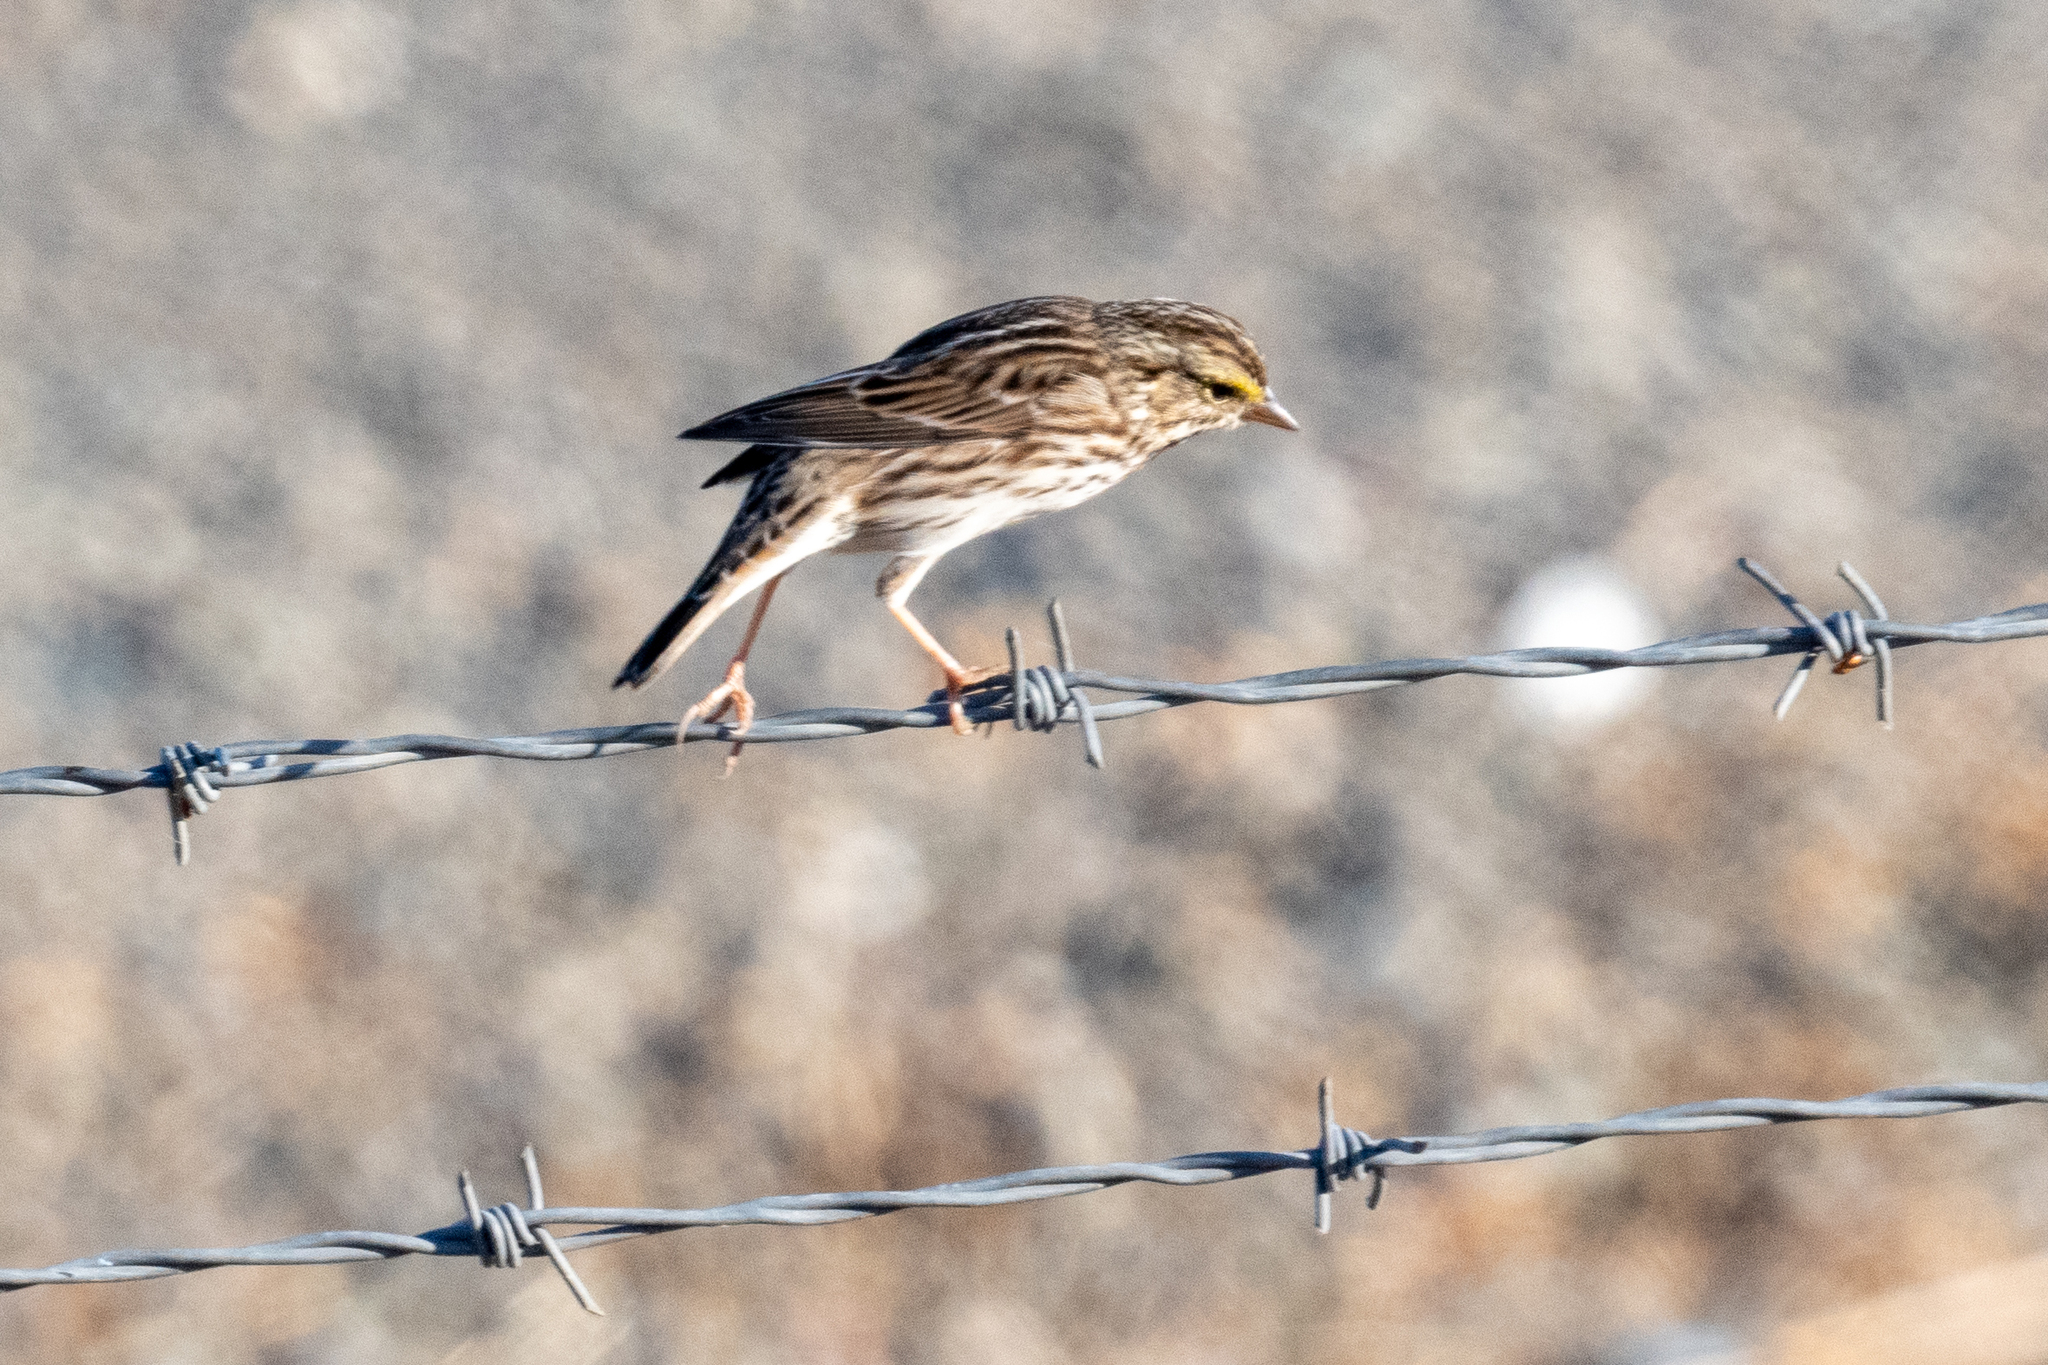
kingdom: Animalia
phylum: Chordata
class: Aves
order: Passeriformes
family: Passerellidae
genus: Passerculus
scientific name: Passerculus sandwichensis
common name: Savannah sparrow
